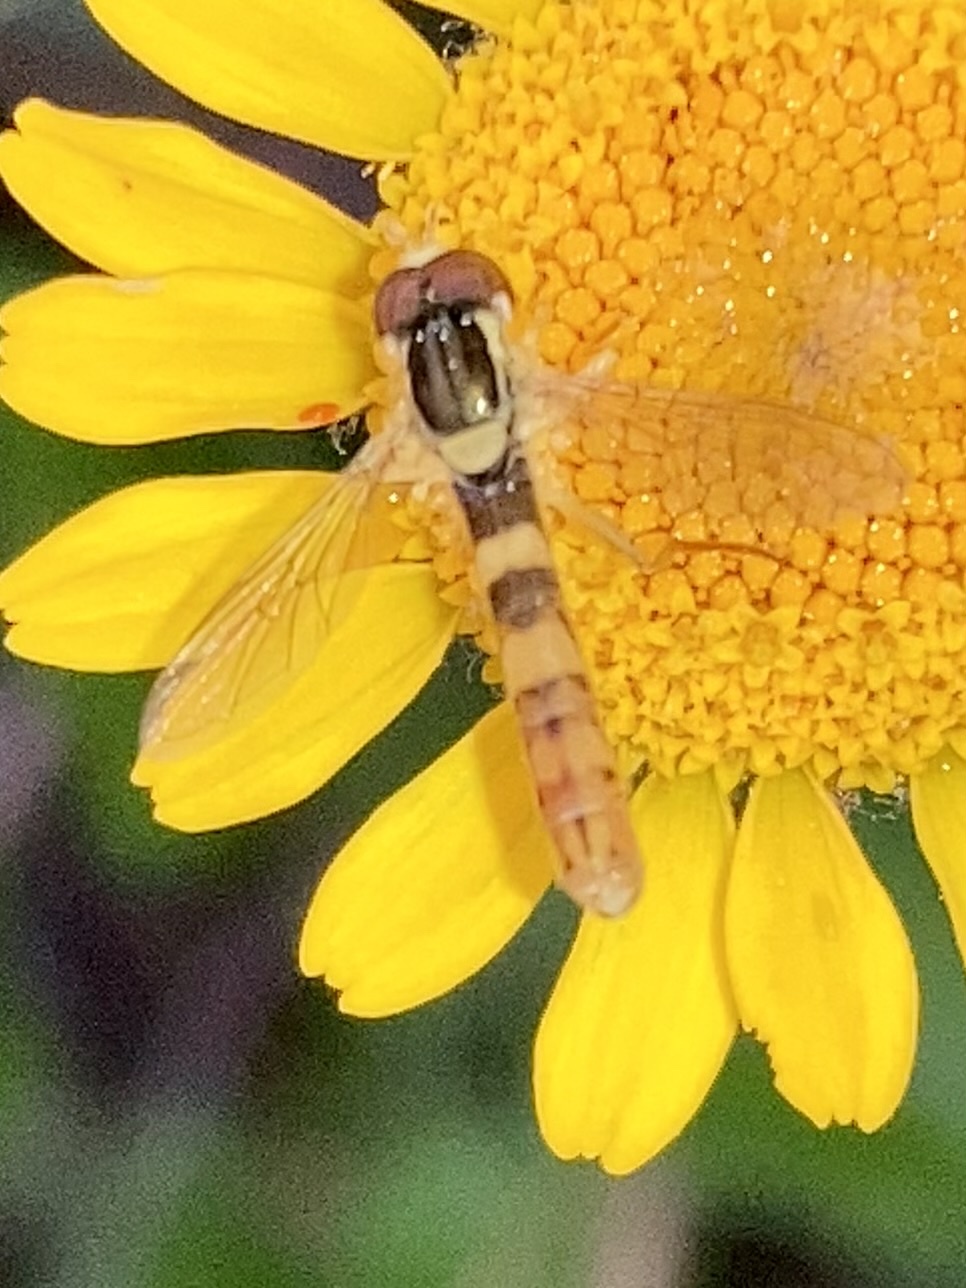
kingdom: Animalia
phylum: Arthropoda
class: Insecta
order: Diptera
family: Syrphidae
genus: Sphaerophoria
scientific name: Sphaerophoria
